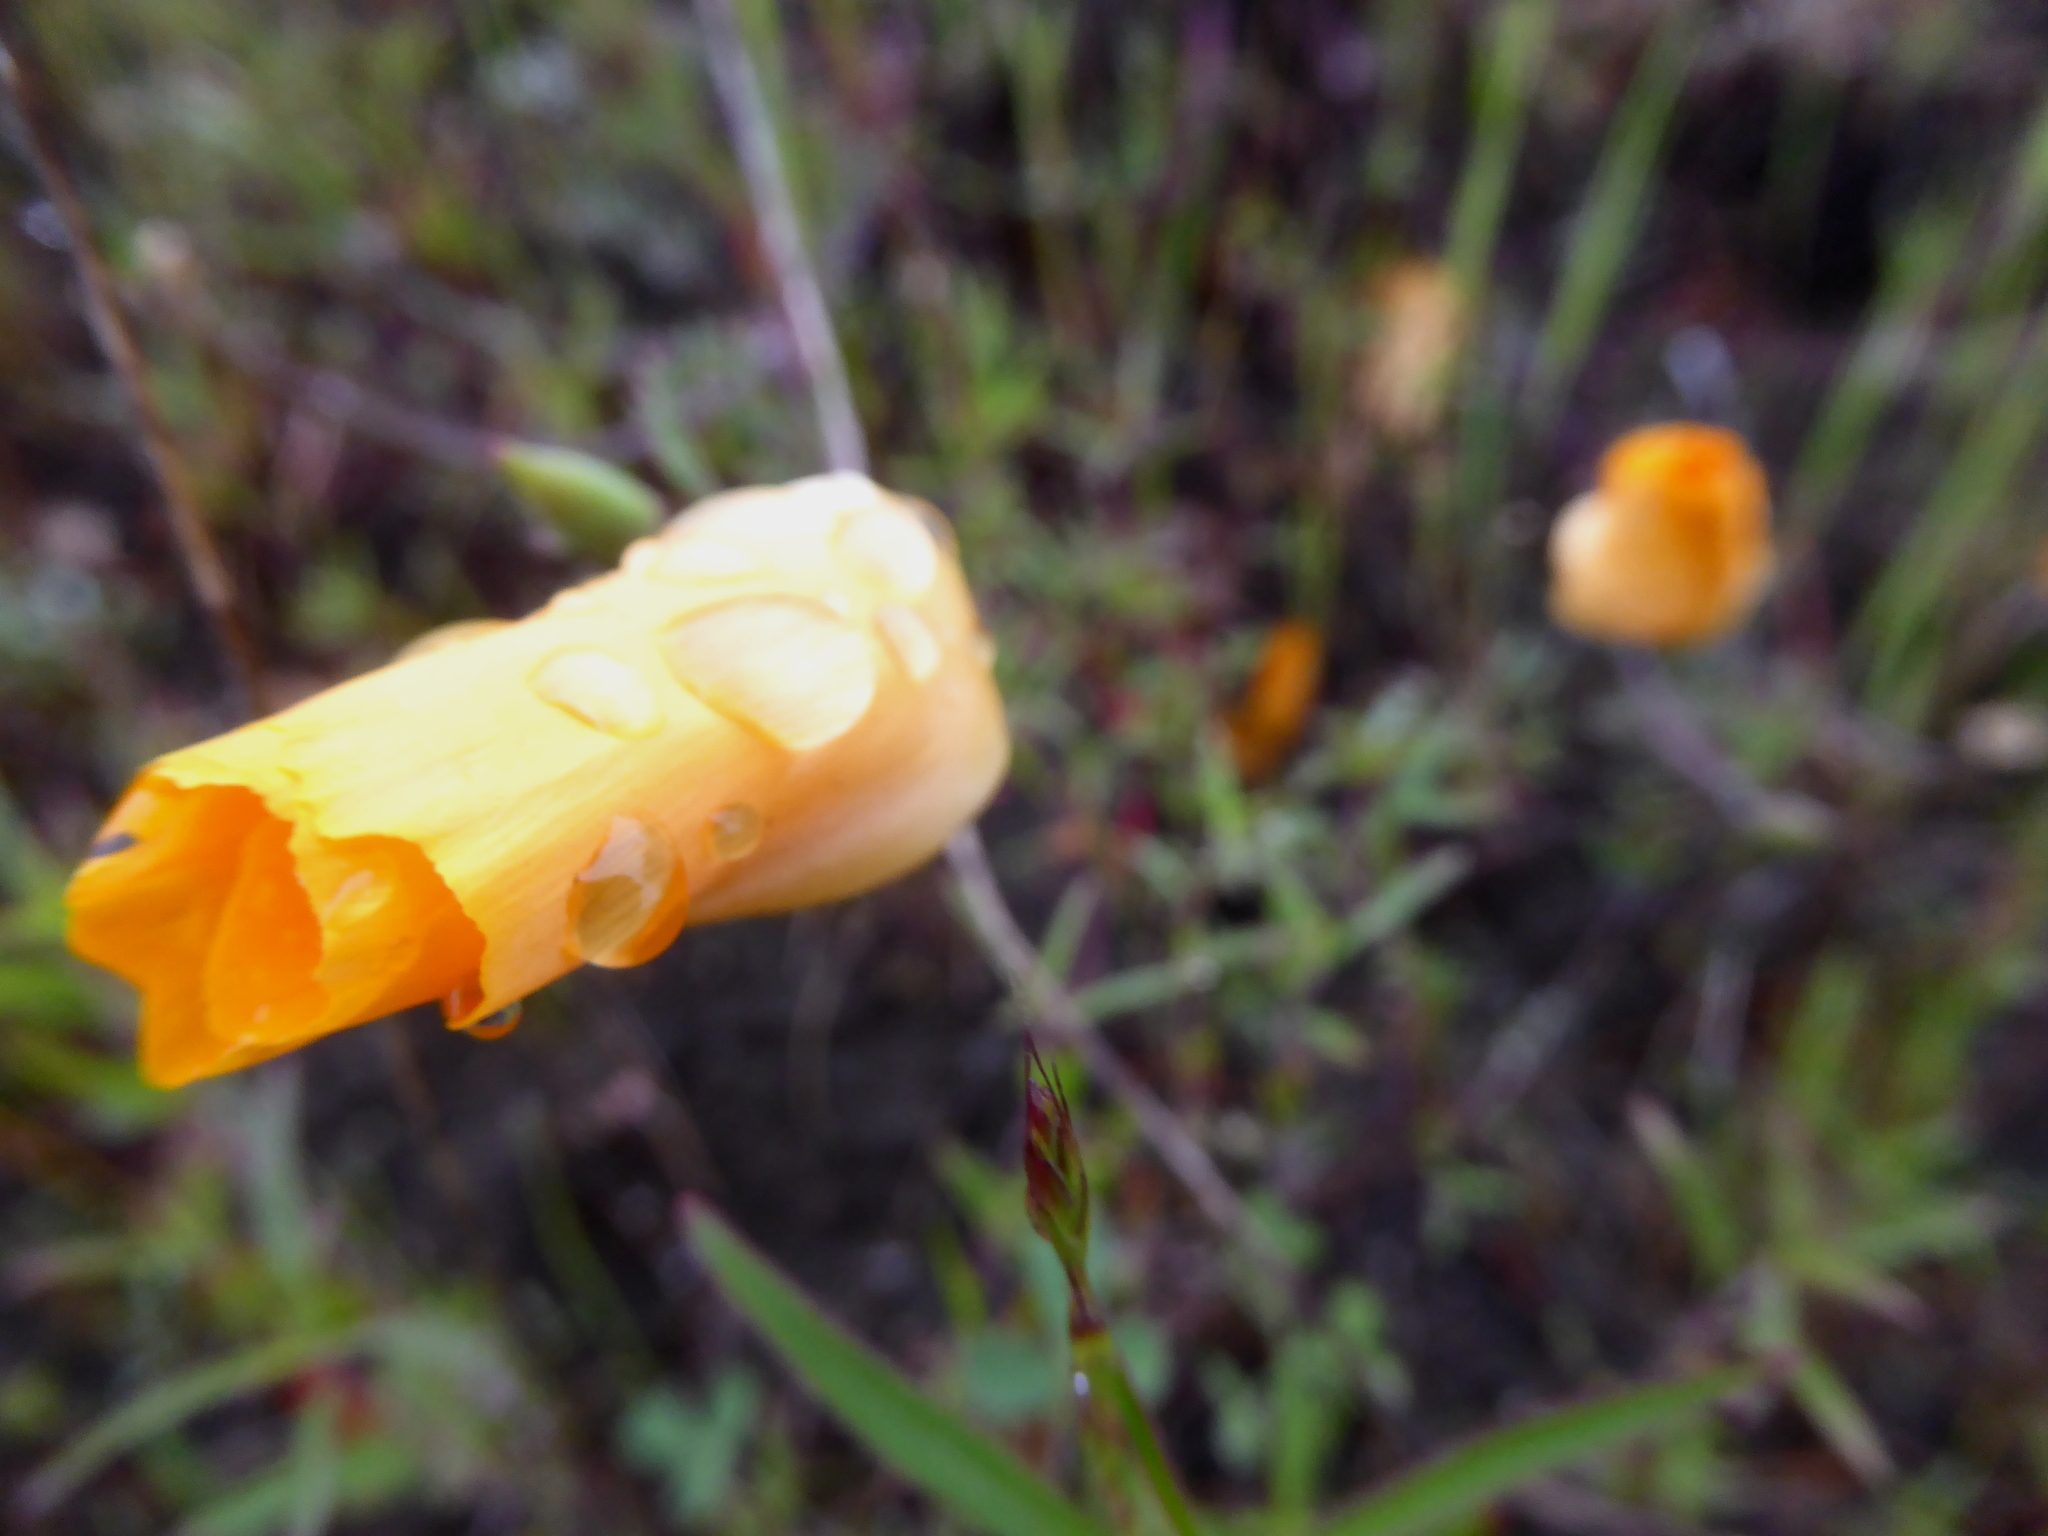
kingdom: Plantae
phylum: Tracheophyta
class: Magnoliopsida
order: Ranunculales
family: Papaveraceae
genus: Eschscholzia
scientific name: Eschscholzia californica
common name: California poppy
